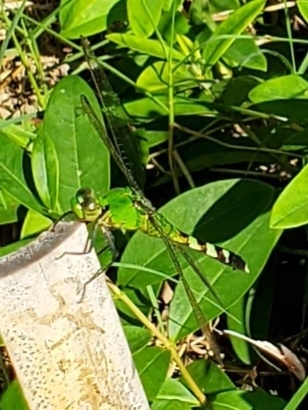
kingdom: Animalia
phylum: Arthropoda
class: Insecta
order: Odonata
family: Libellulidae
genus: Erythemis
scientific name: Erythemis simplicicollis
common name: Eastern pondhawk
